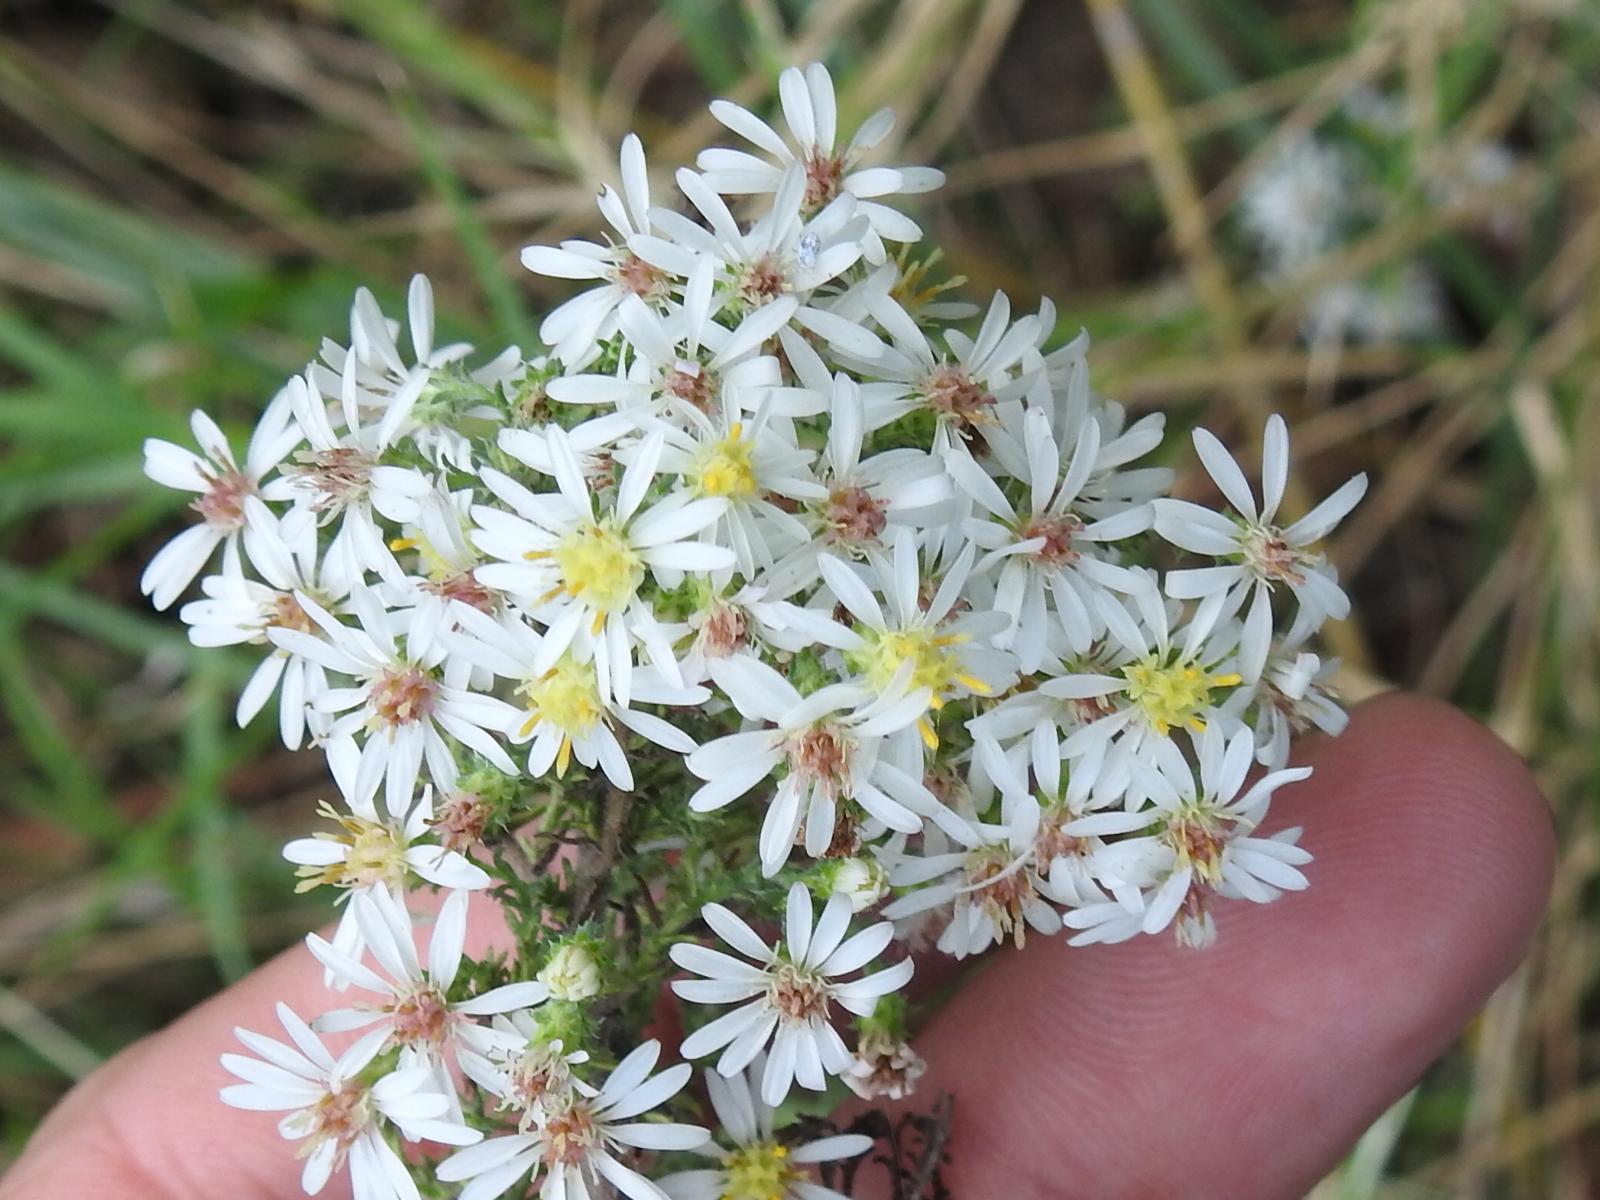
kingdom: Plantae
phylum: Tracheophyta
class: Magnoliopsida
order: Asterales
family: Asteraceae
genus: Symphyotrichum
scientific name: Symphyotrichum ericoides
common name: Heath aster
